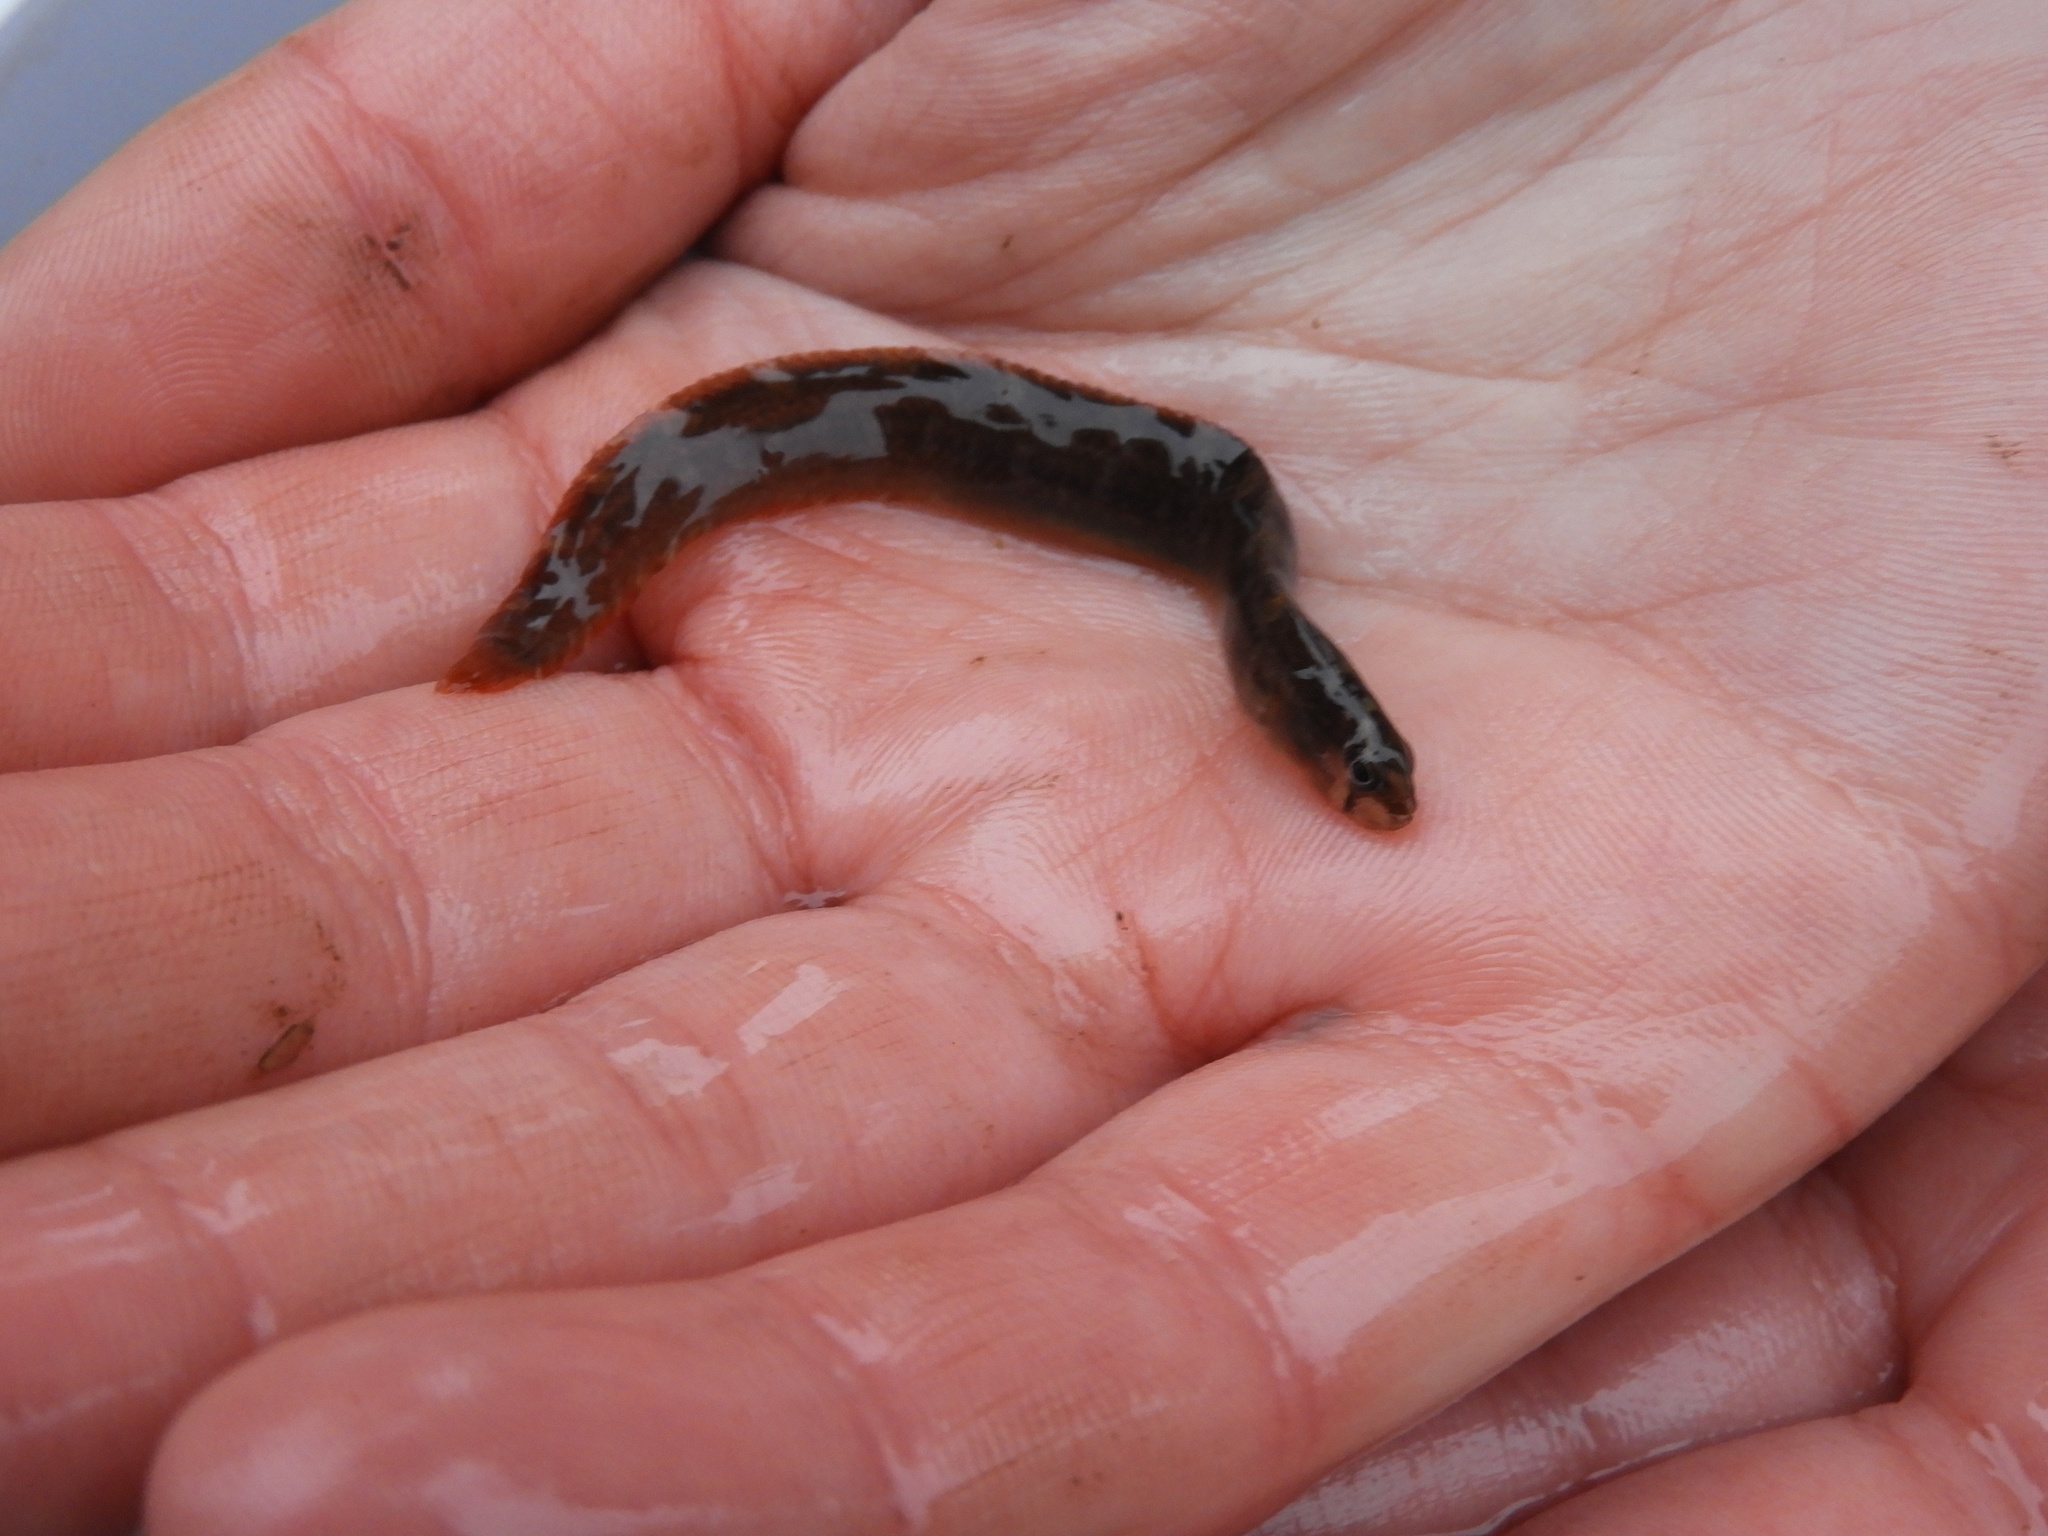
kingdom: Animalia
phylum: Chordata
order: Perciformes
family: Pholidae
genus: Pholis
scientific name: Pholis laeta
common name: Crescent gunnel
